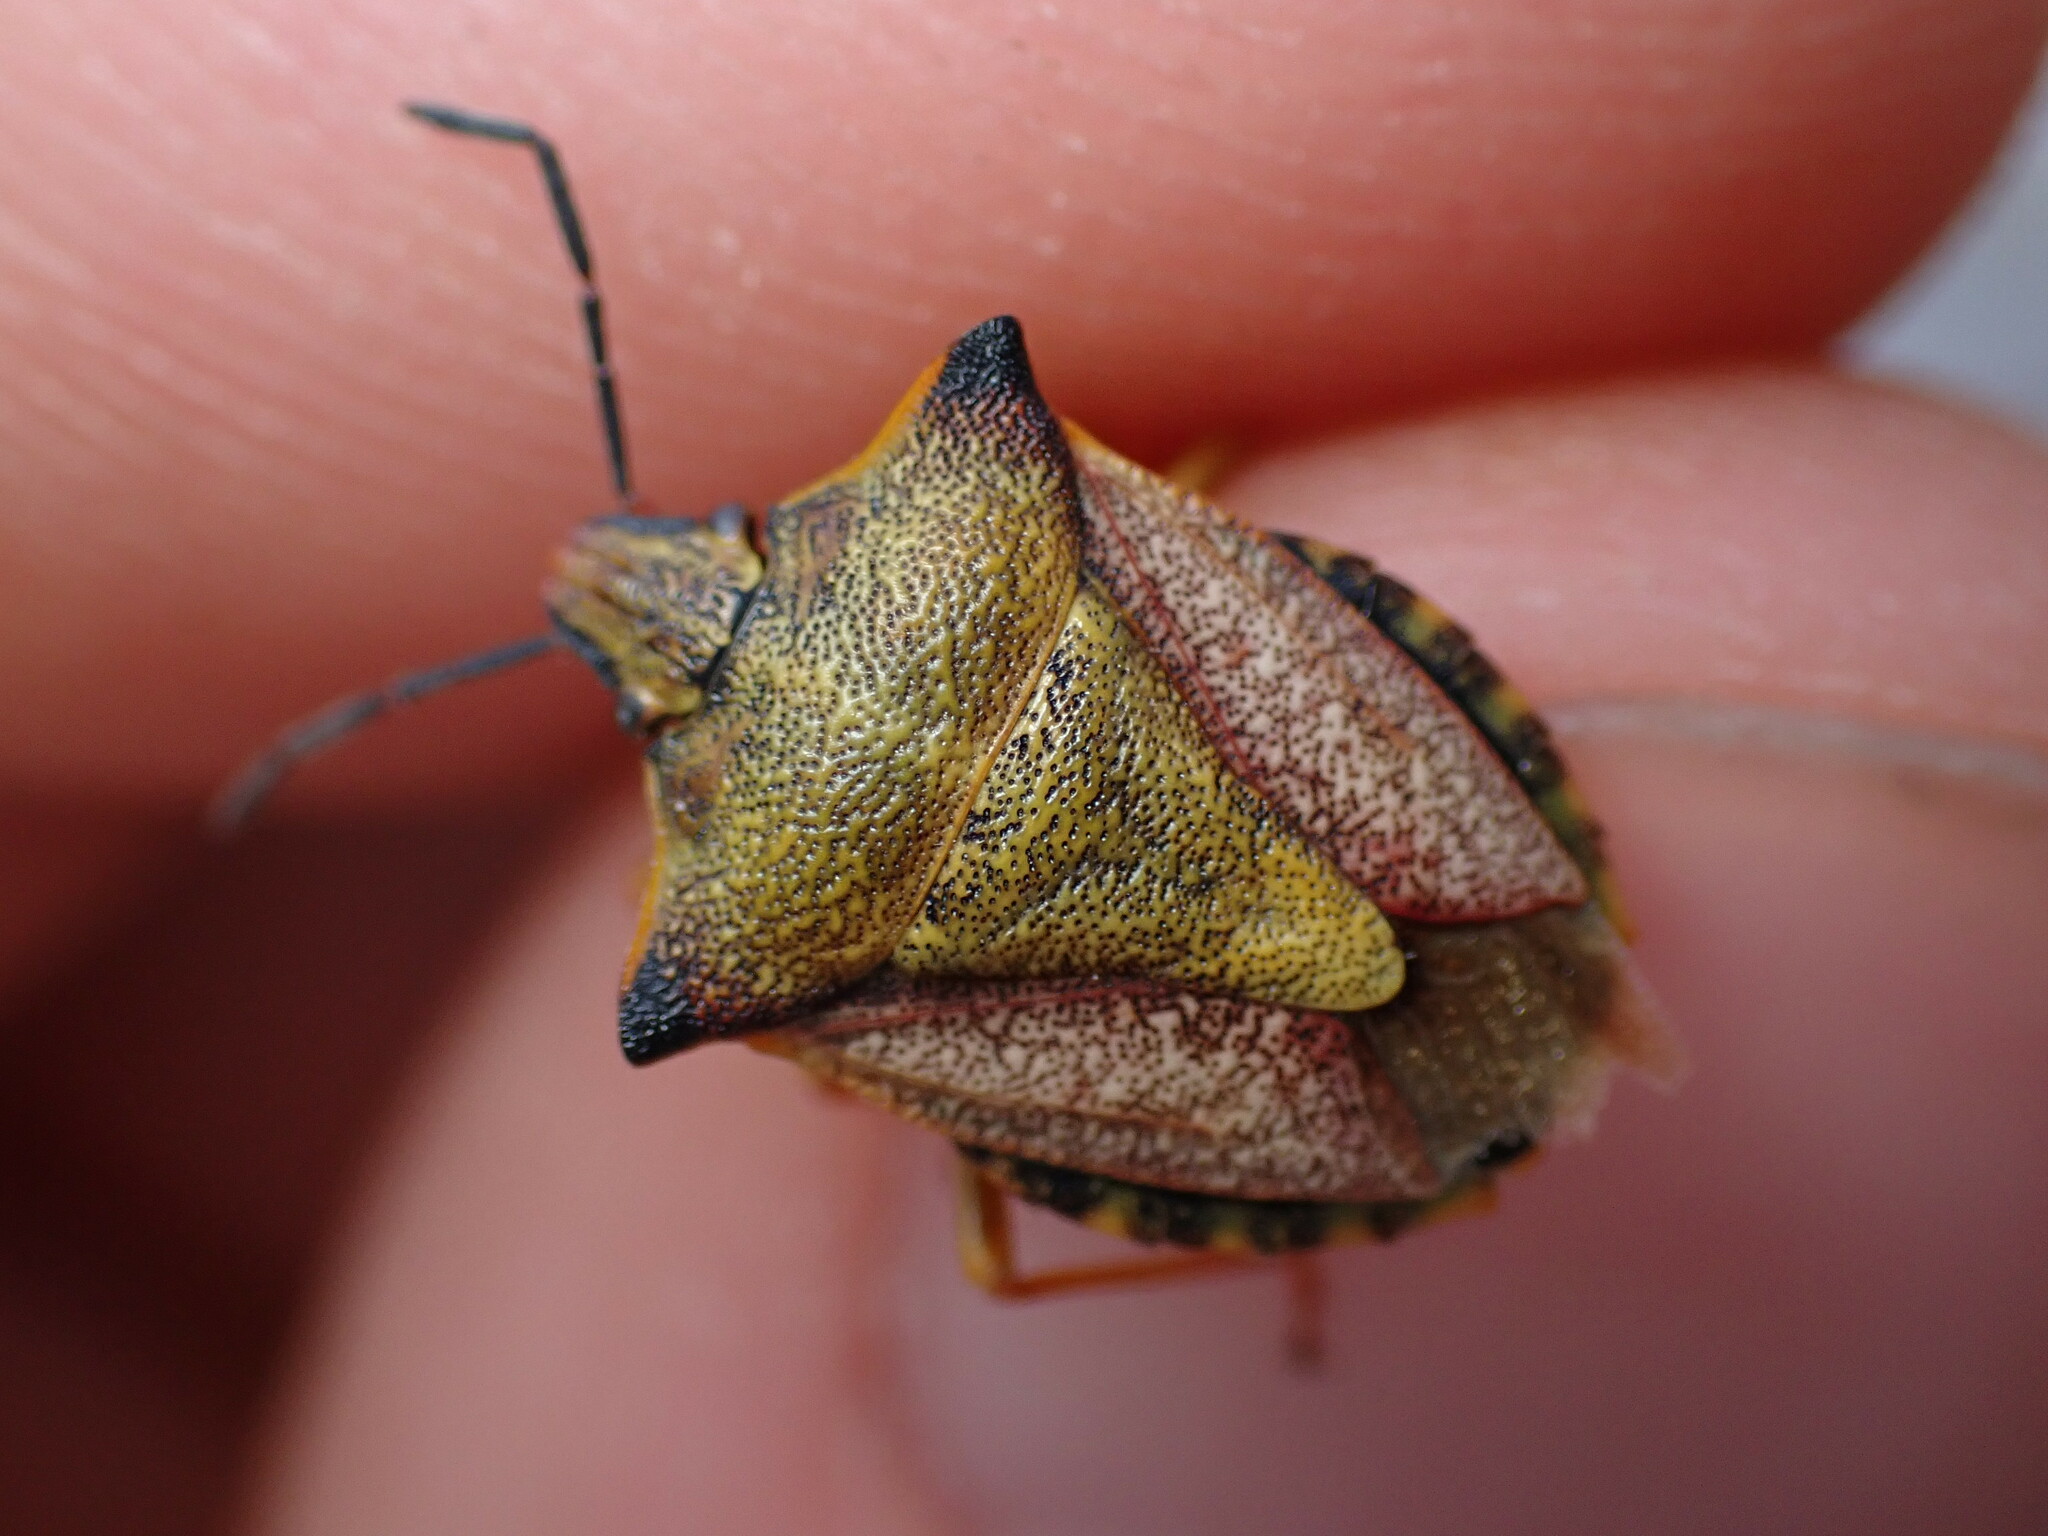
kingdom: Animalia
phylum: Arthropoda
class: Insecta
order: Hemiptera
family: Pentatomidae
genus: Carpocoris
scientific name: Carpocoris mediterraneus
